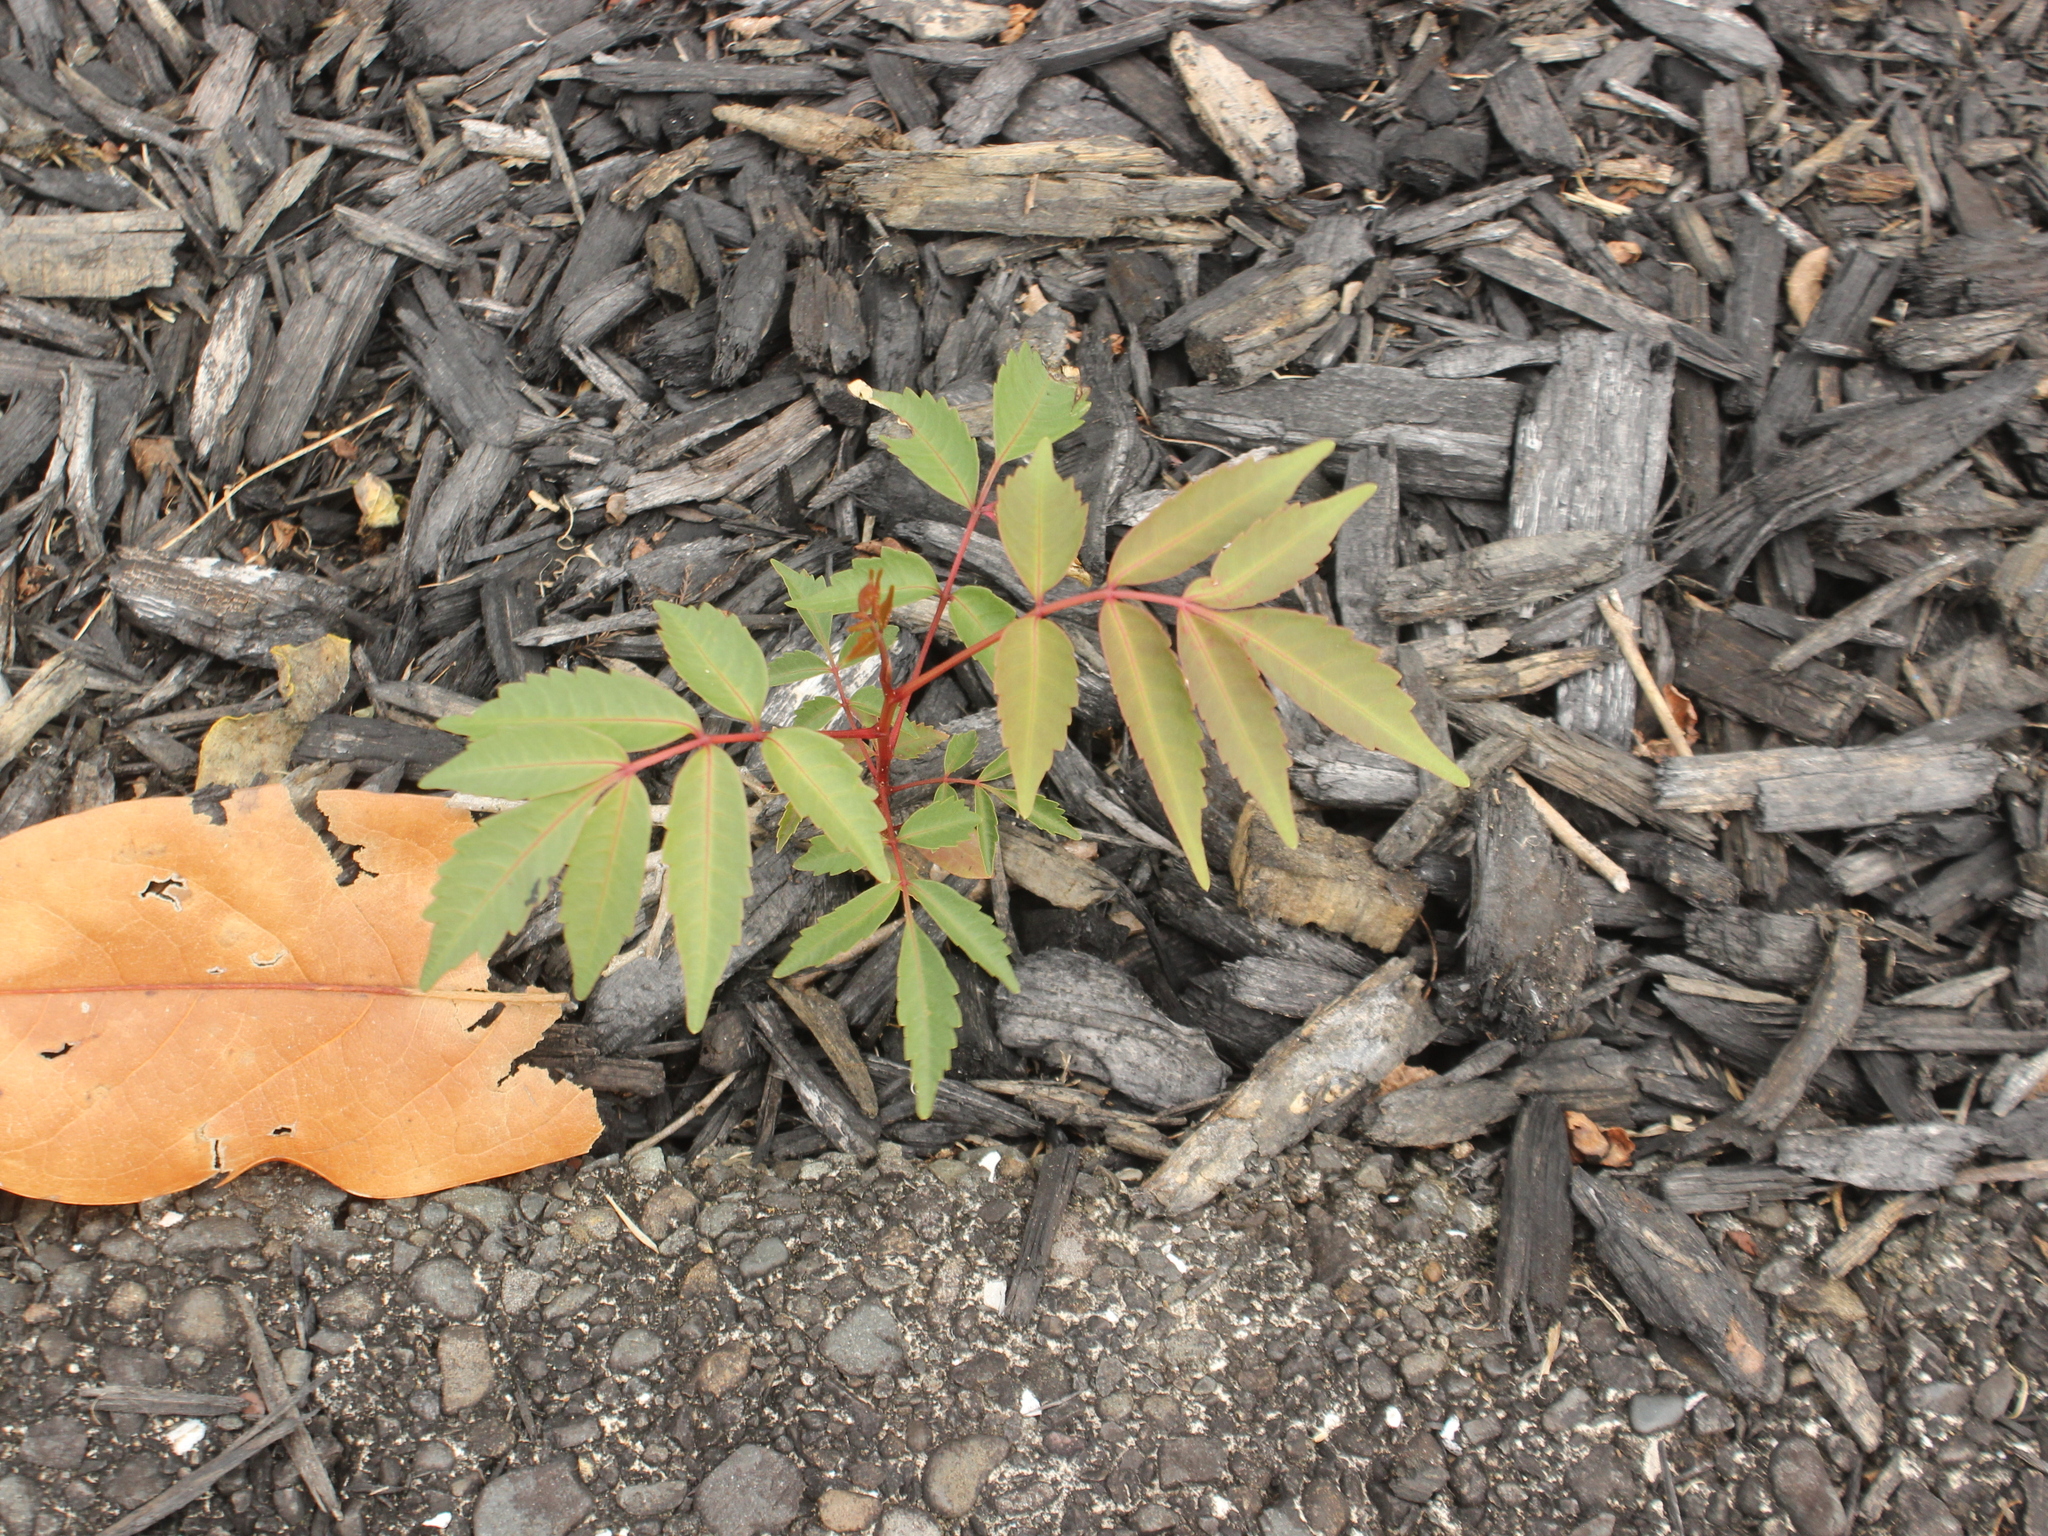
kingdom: Plantae
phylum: Tracheophyta
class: Magnoliopsida
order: Sapindales
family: Anacardiaceae
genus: Toxicodendron
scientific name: Toxicodendron succedaneum
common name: Wax tree
